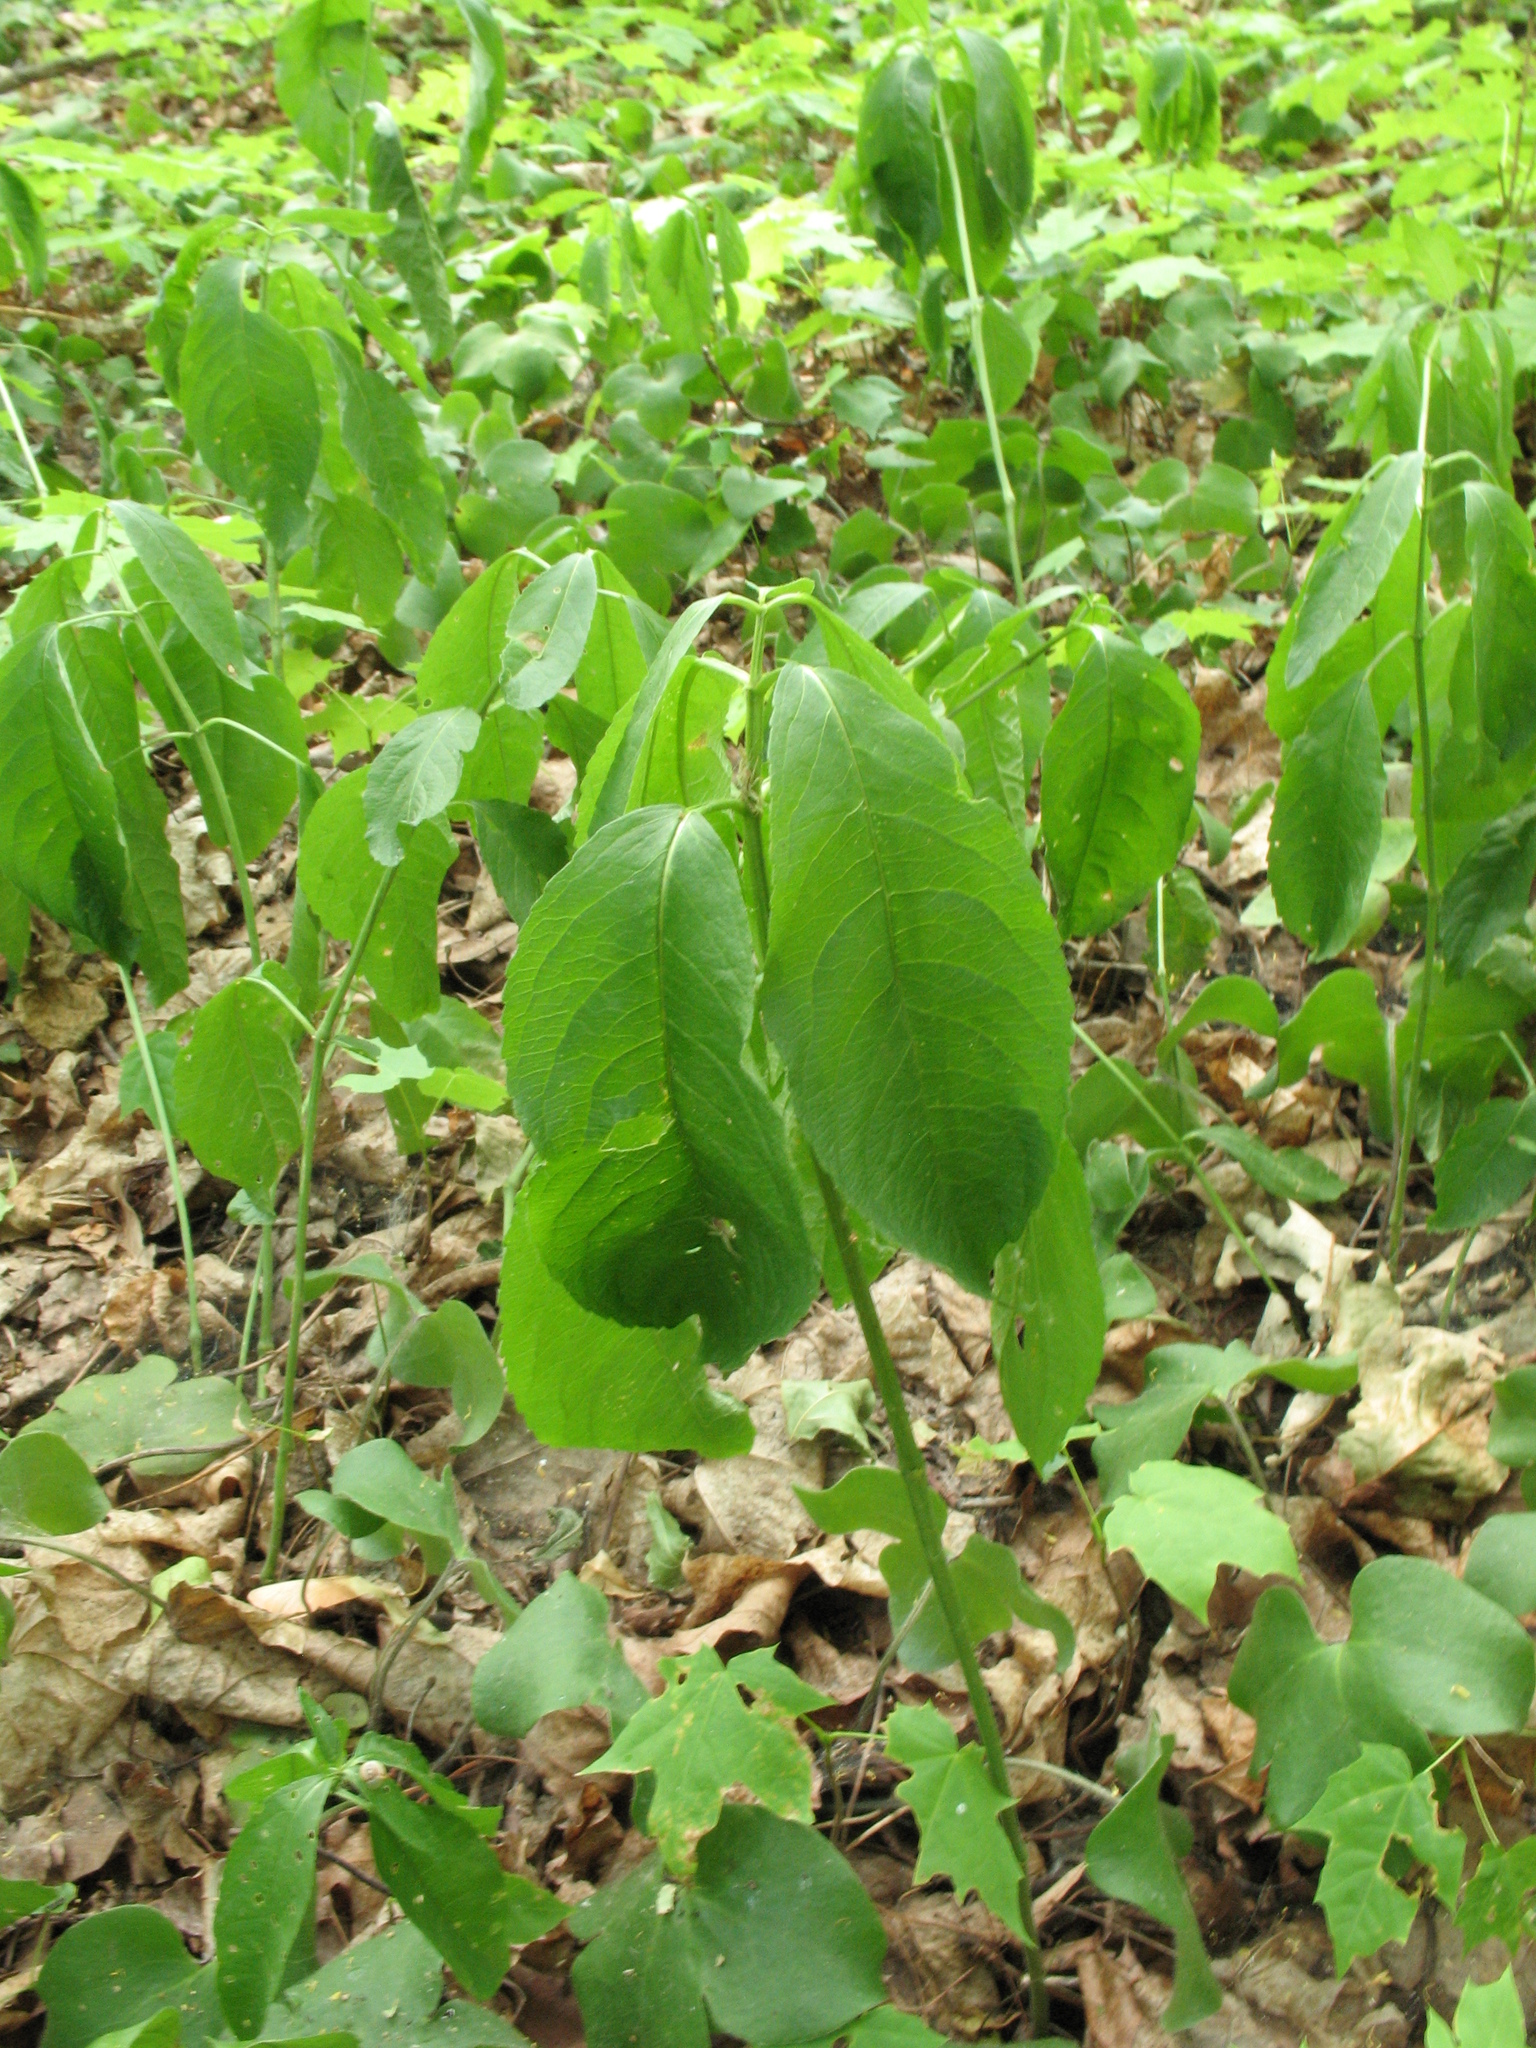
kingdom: Plantae
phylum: Tracheophyta
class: Magnoliopsida
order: Malpighiales
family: Euphorbiaceae
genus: Mercurialis
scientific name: Mercurialis perennis
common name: Dog mercury
